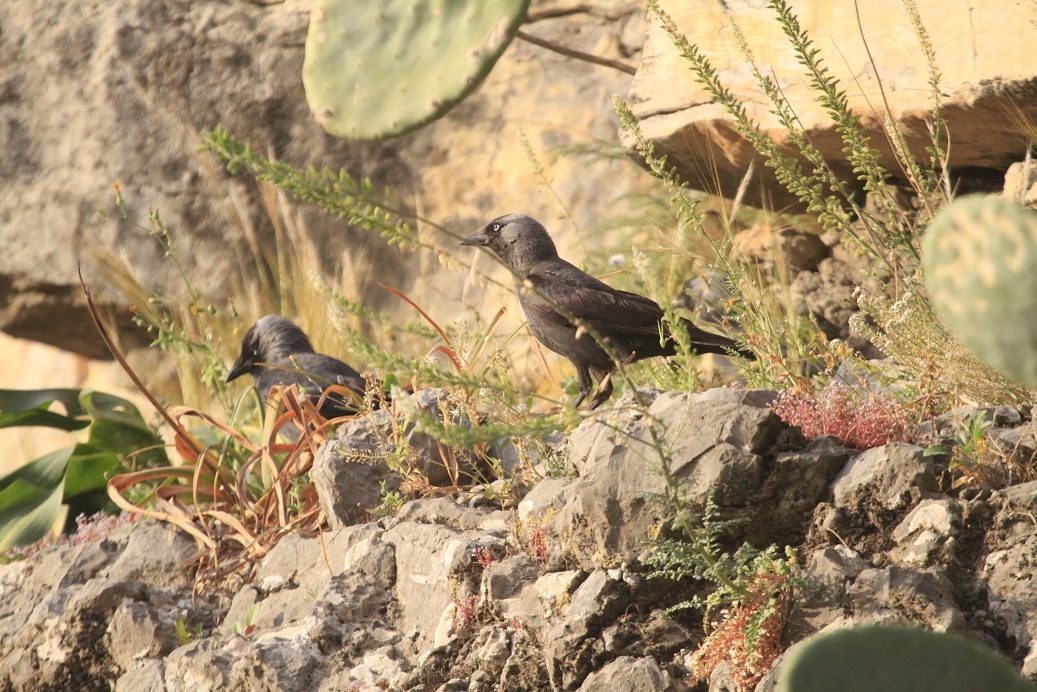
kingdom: Animalia
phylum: Chordata
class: Aves
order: Passeriformes
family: Corvidae
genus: Coloeus
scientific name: Coloeus monedula
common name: Western jackdaw
